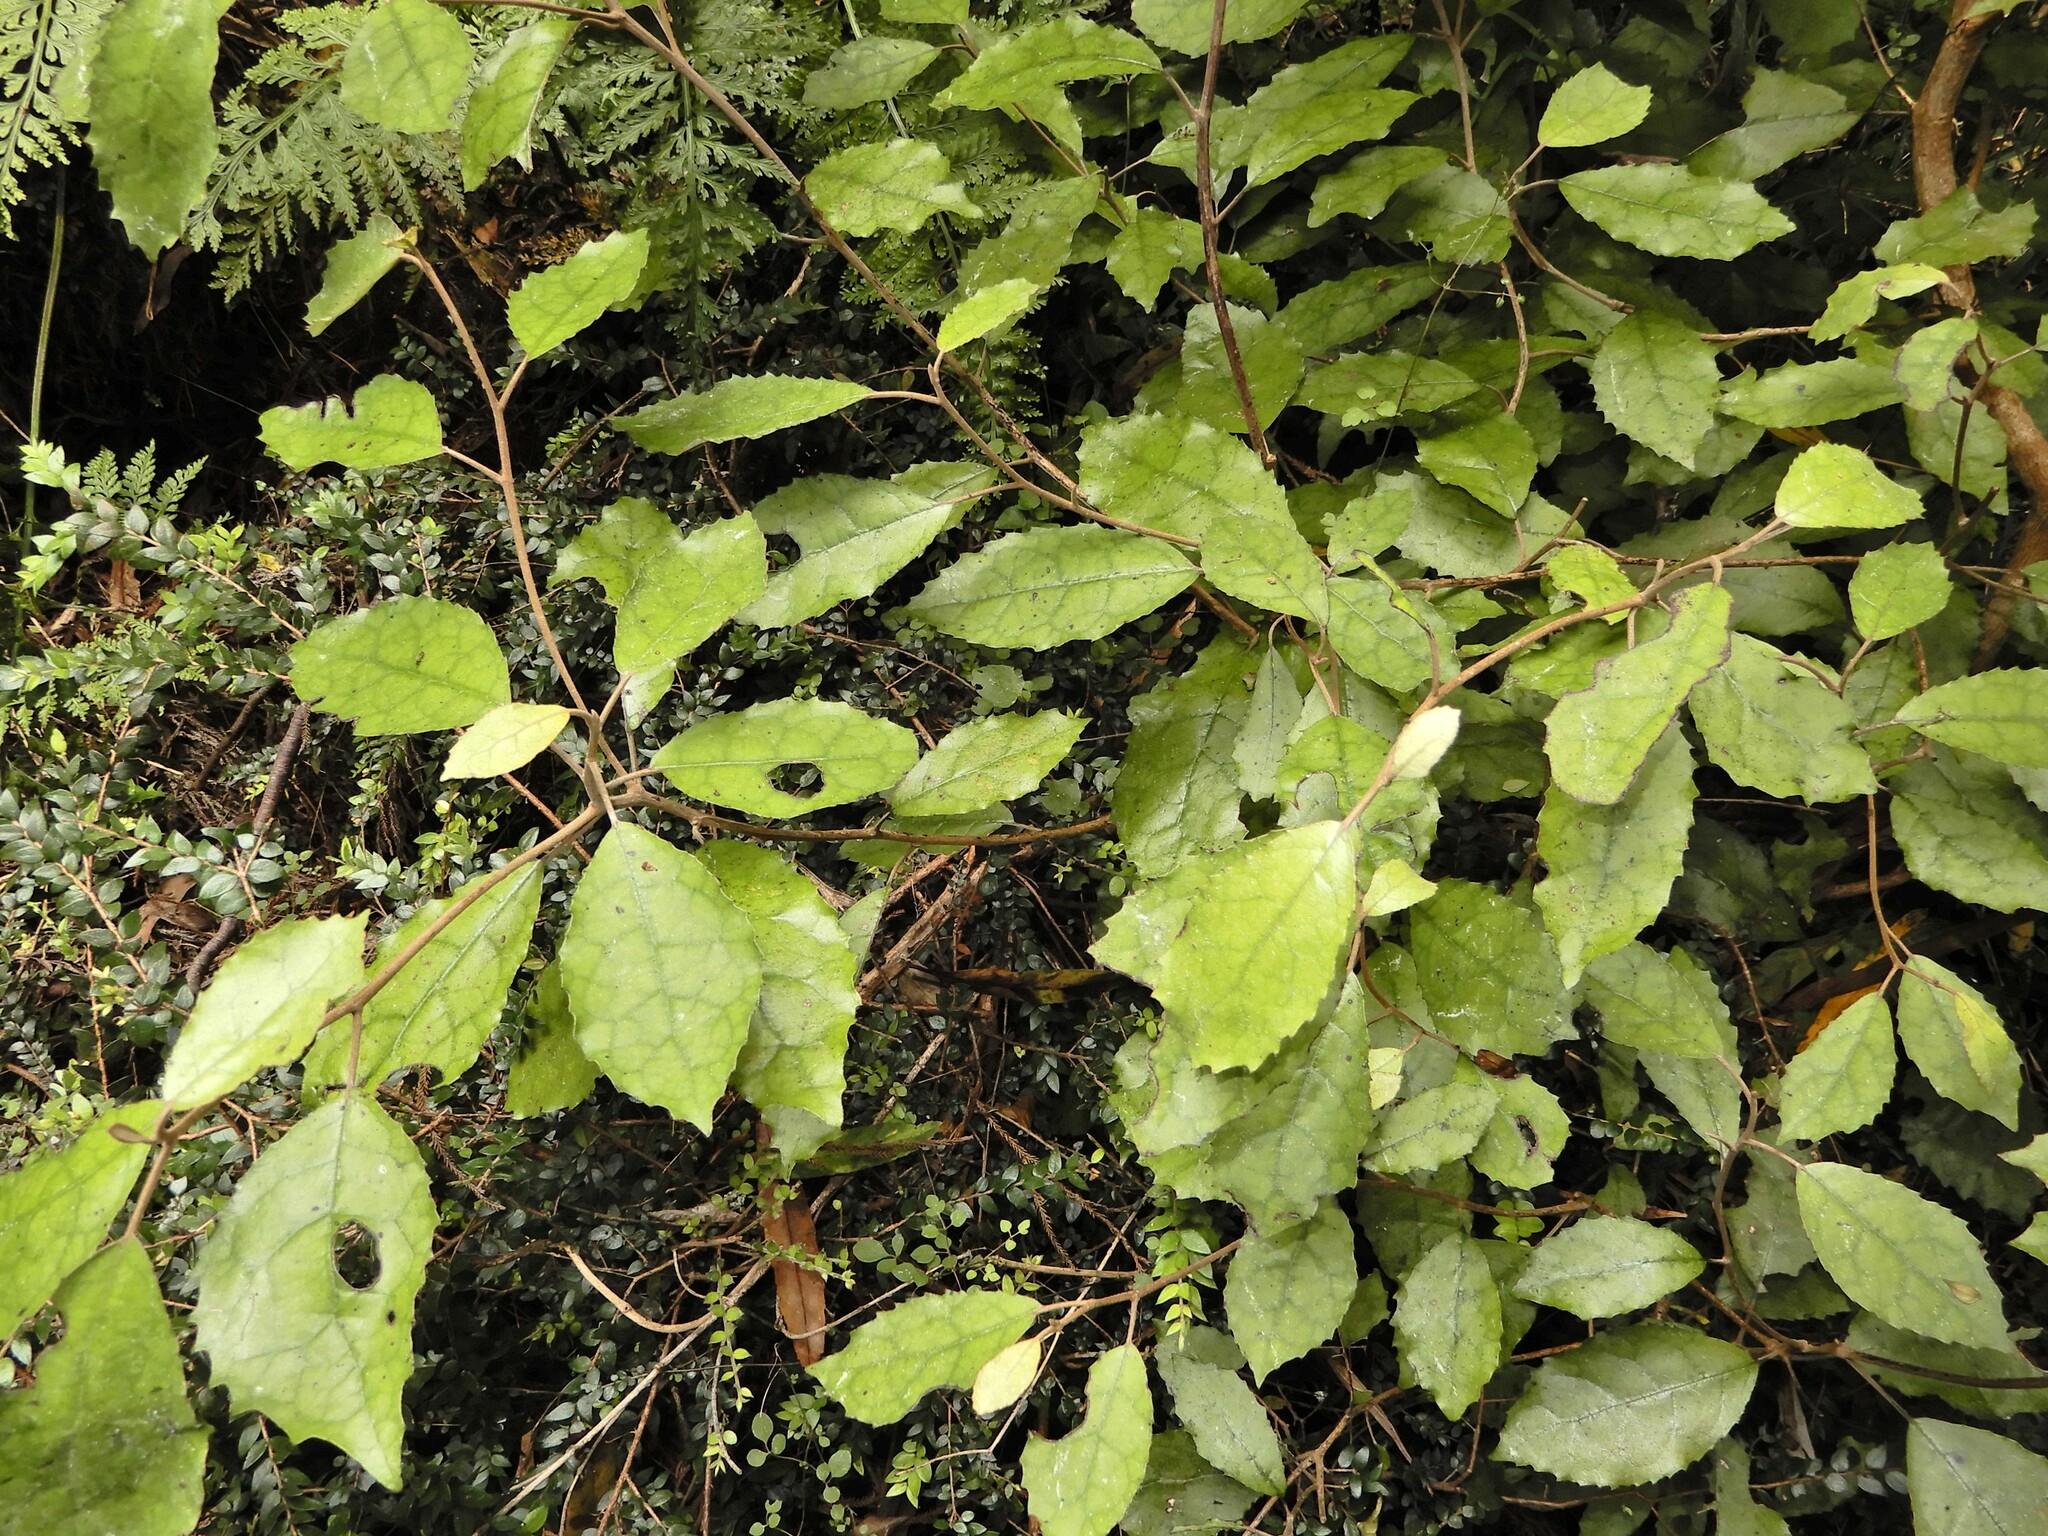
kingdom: Plantae
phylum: Tracheophyta
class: Magnoliopsida
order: Asterales
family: Asteraceae
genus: Olearia
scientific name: Olearia rani
